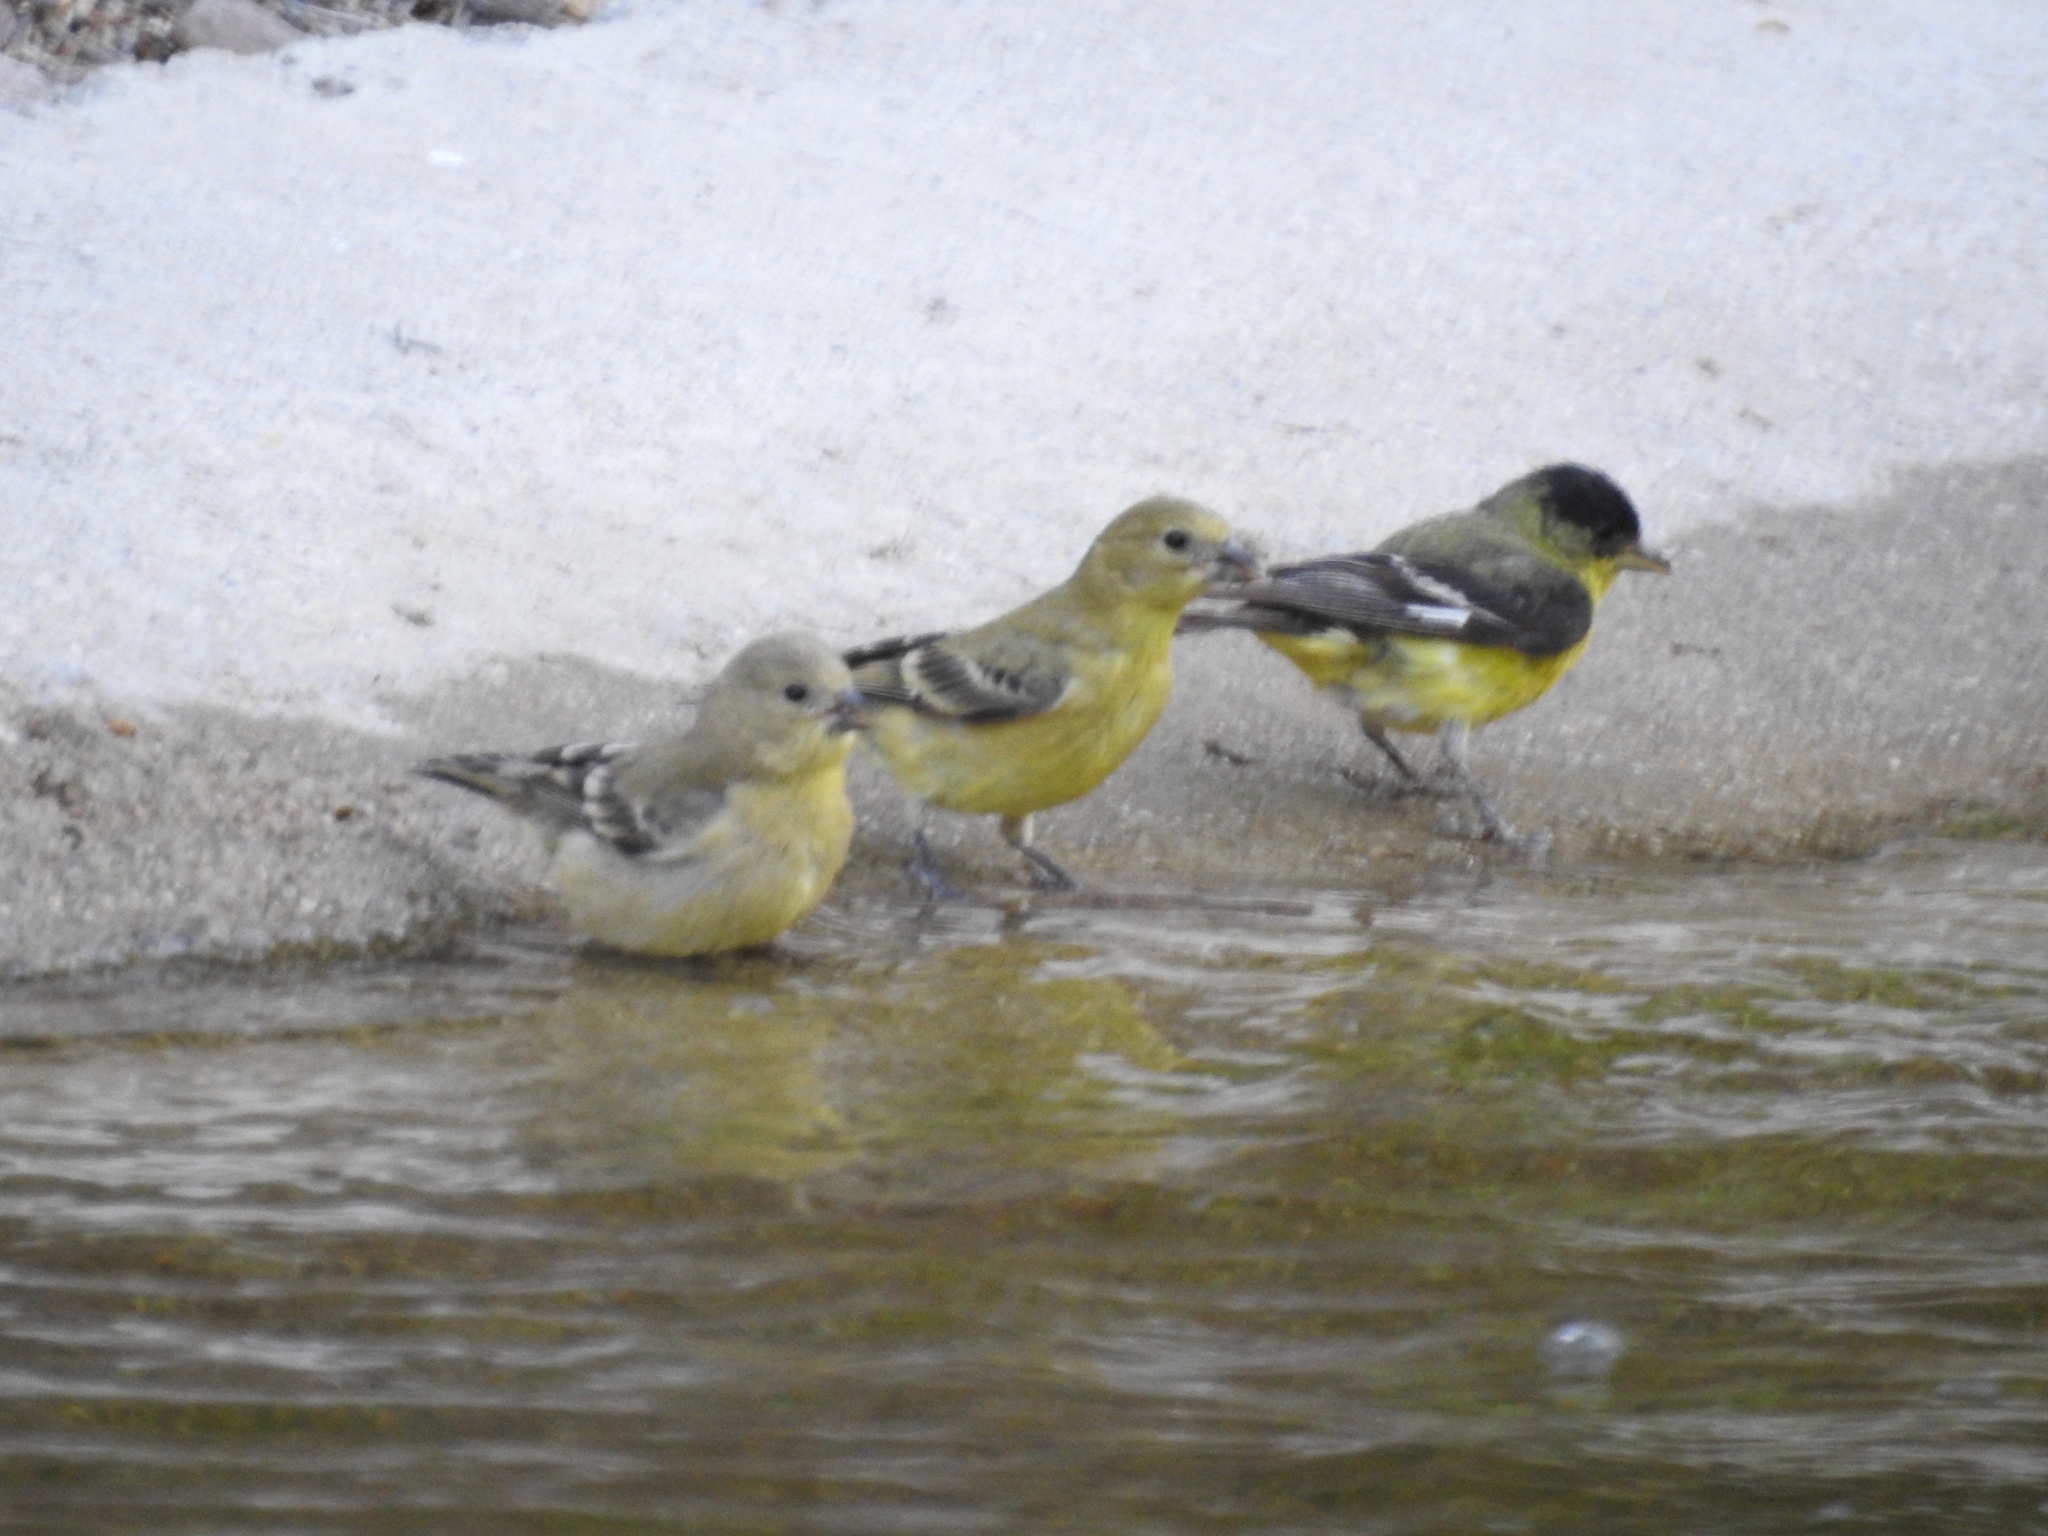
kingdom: Animalia
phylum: Chordata
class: Aves
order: Passeriformes
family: Fringillidae
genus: Spinus
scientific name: Spinus psaltria
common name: Lesser goldfinch
